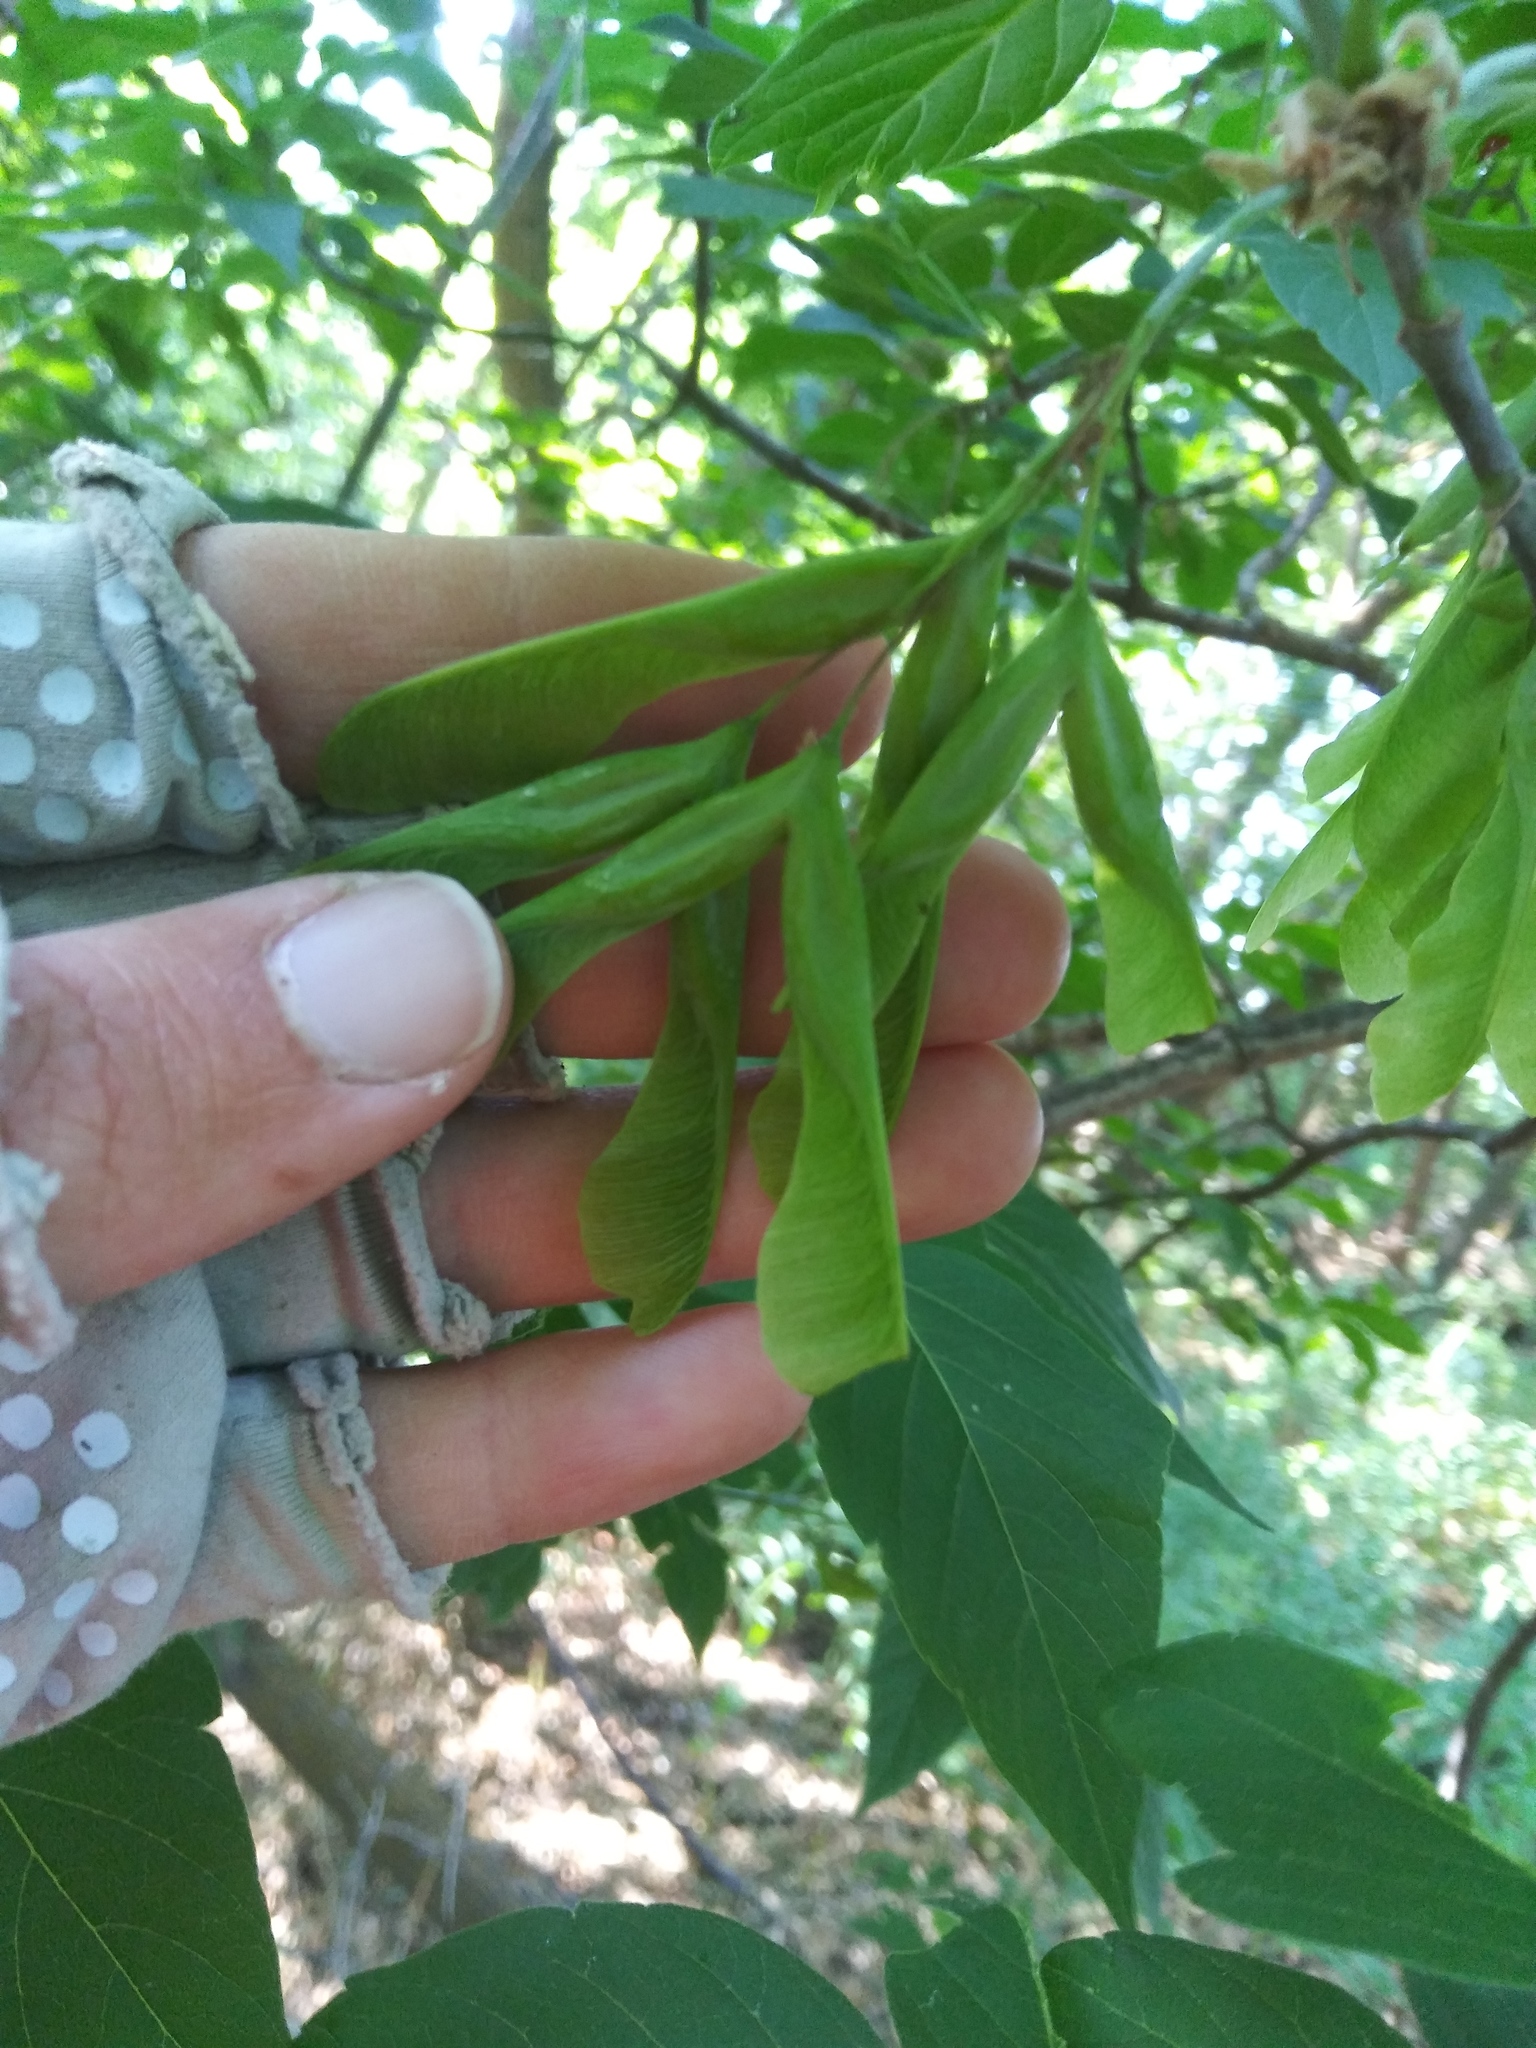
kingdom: Plantae
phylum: Tracheophyta
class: Magnoliopsida
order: Sapindales
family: Sapindaceae
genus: Acer
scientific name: Acer negundo
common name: Ashleaf maple
